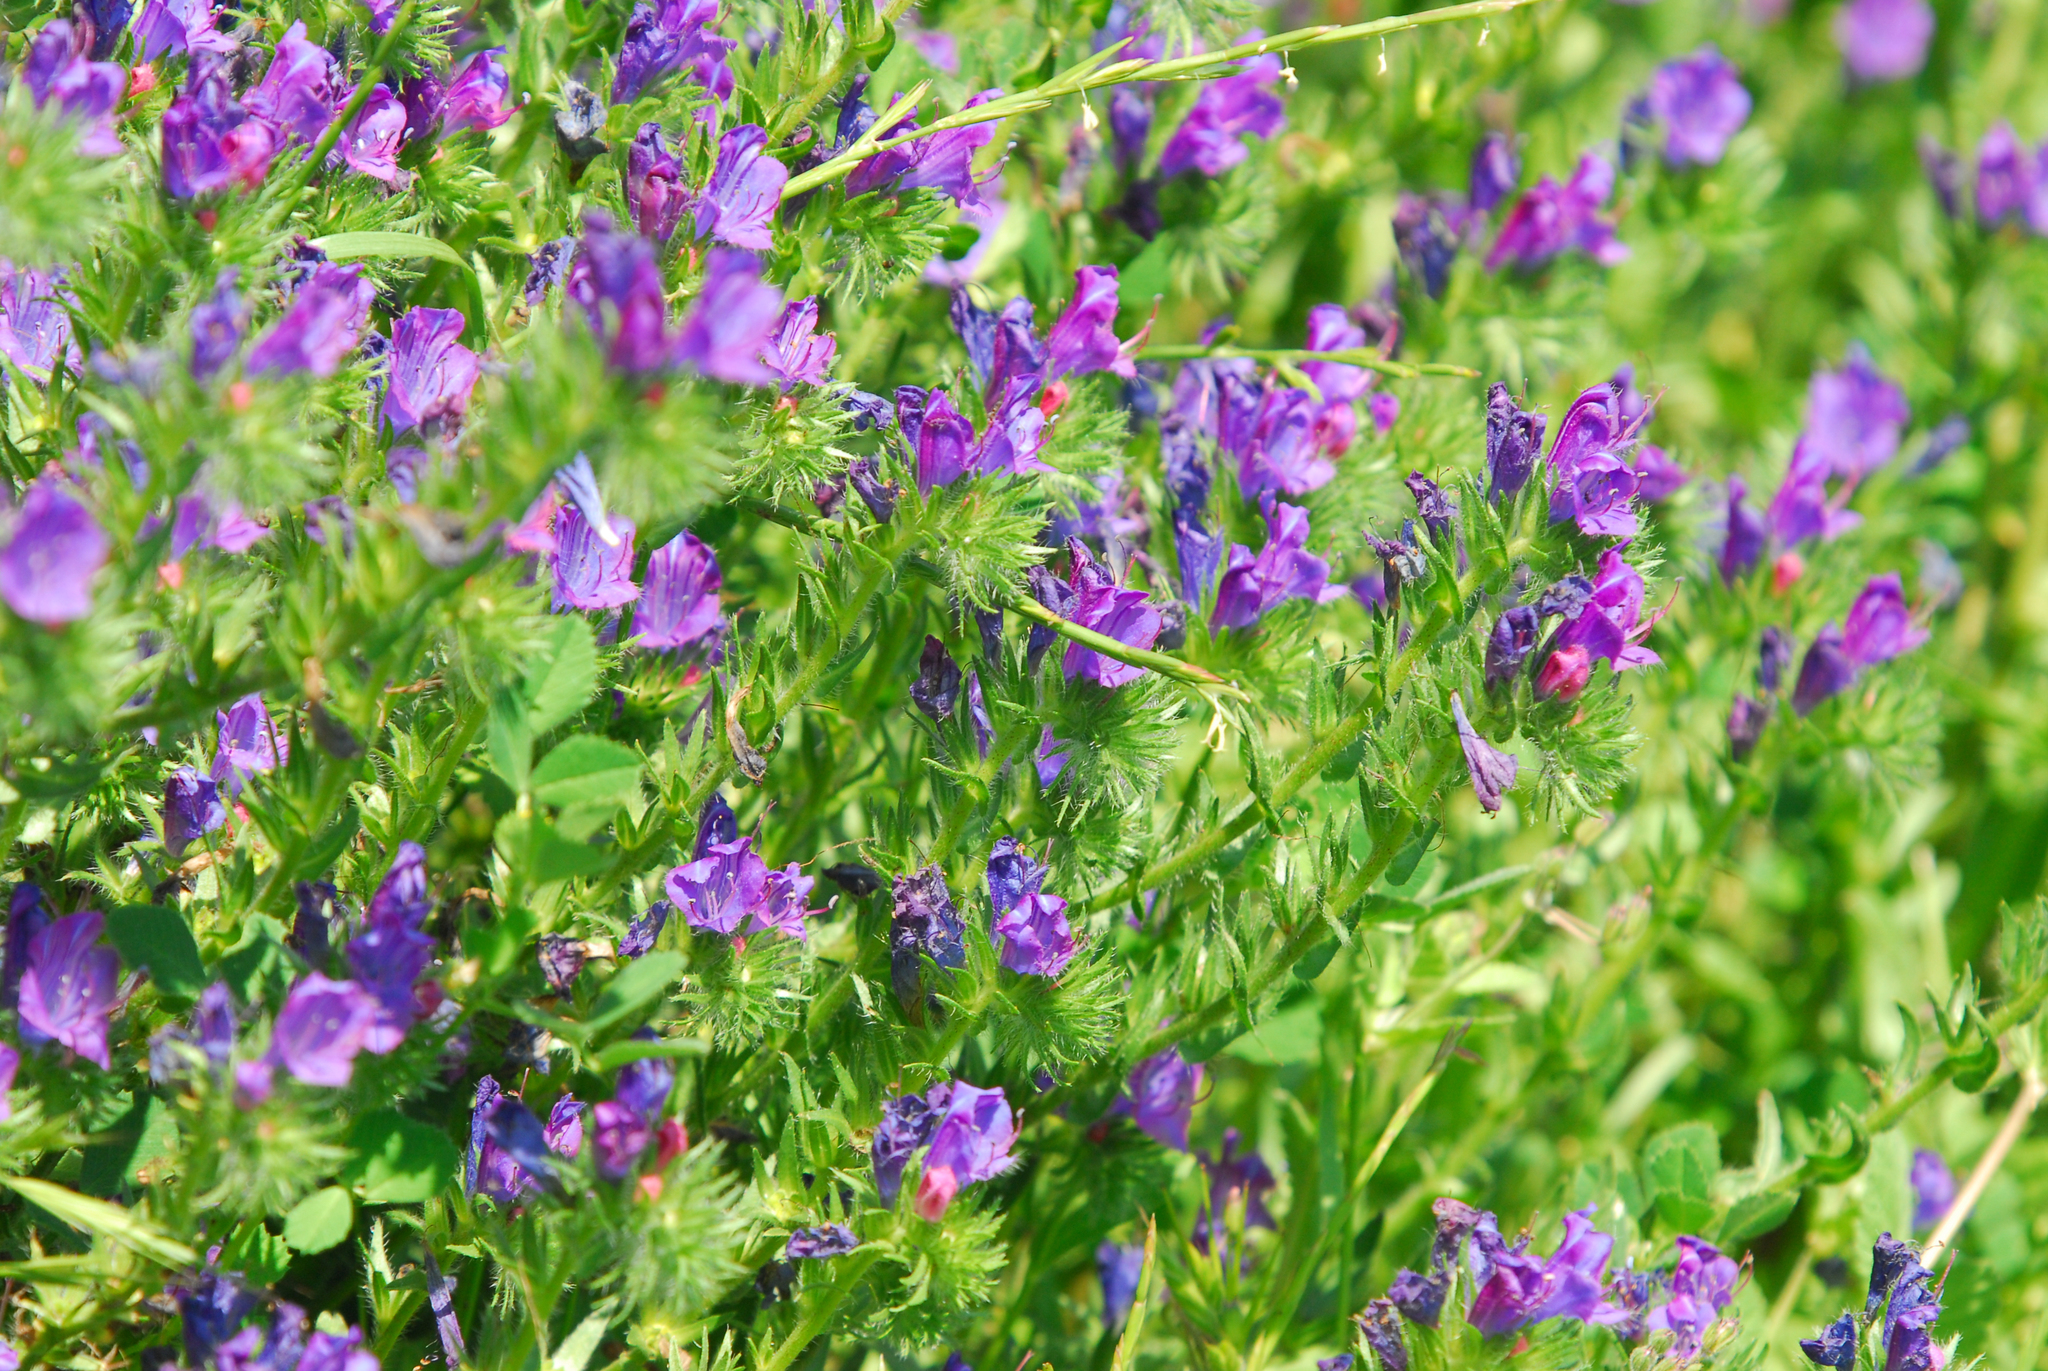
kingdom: Plantae
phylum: Tracheophyta
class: Magnoliopsida
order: Boraginales
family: Boraginaceae
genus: Echium
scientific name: Echium plantagineum
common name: Purple viper's-bugloss
